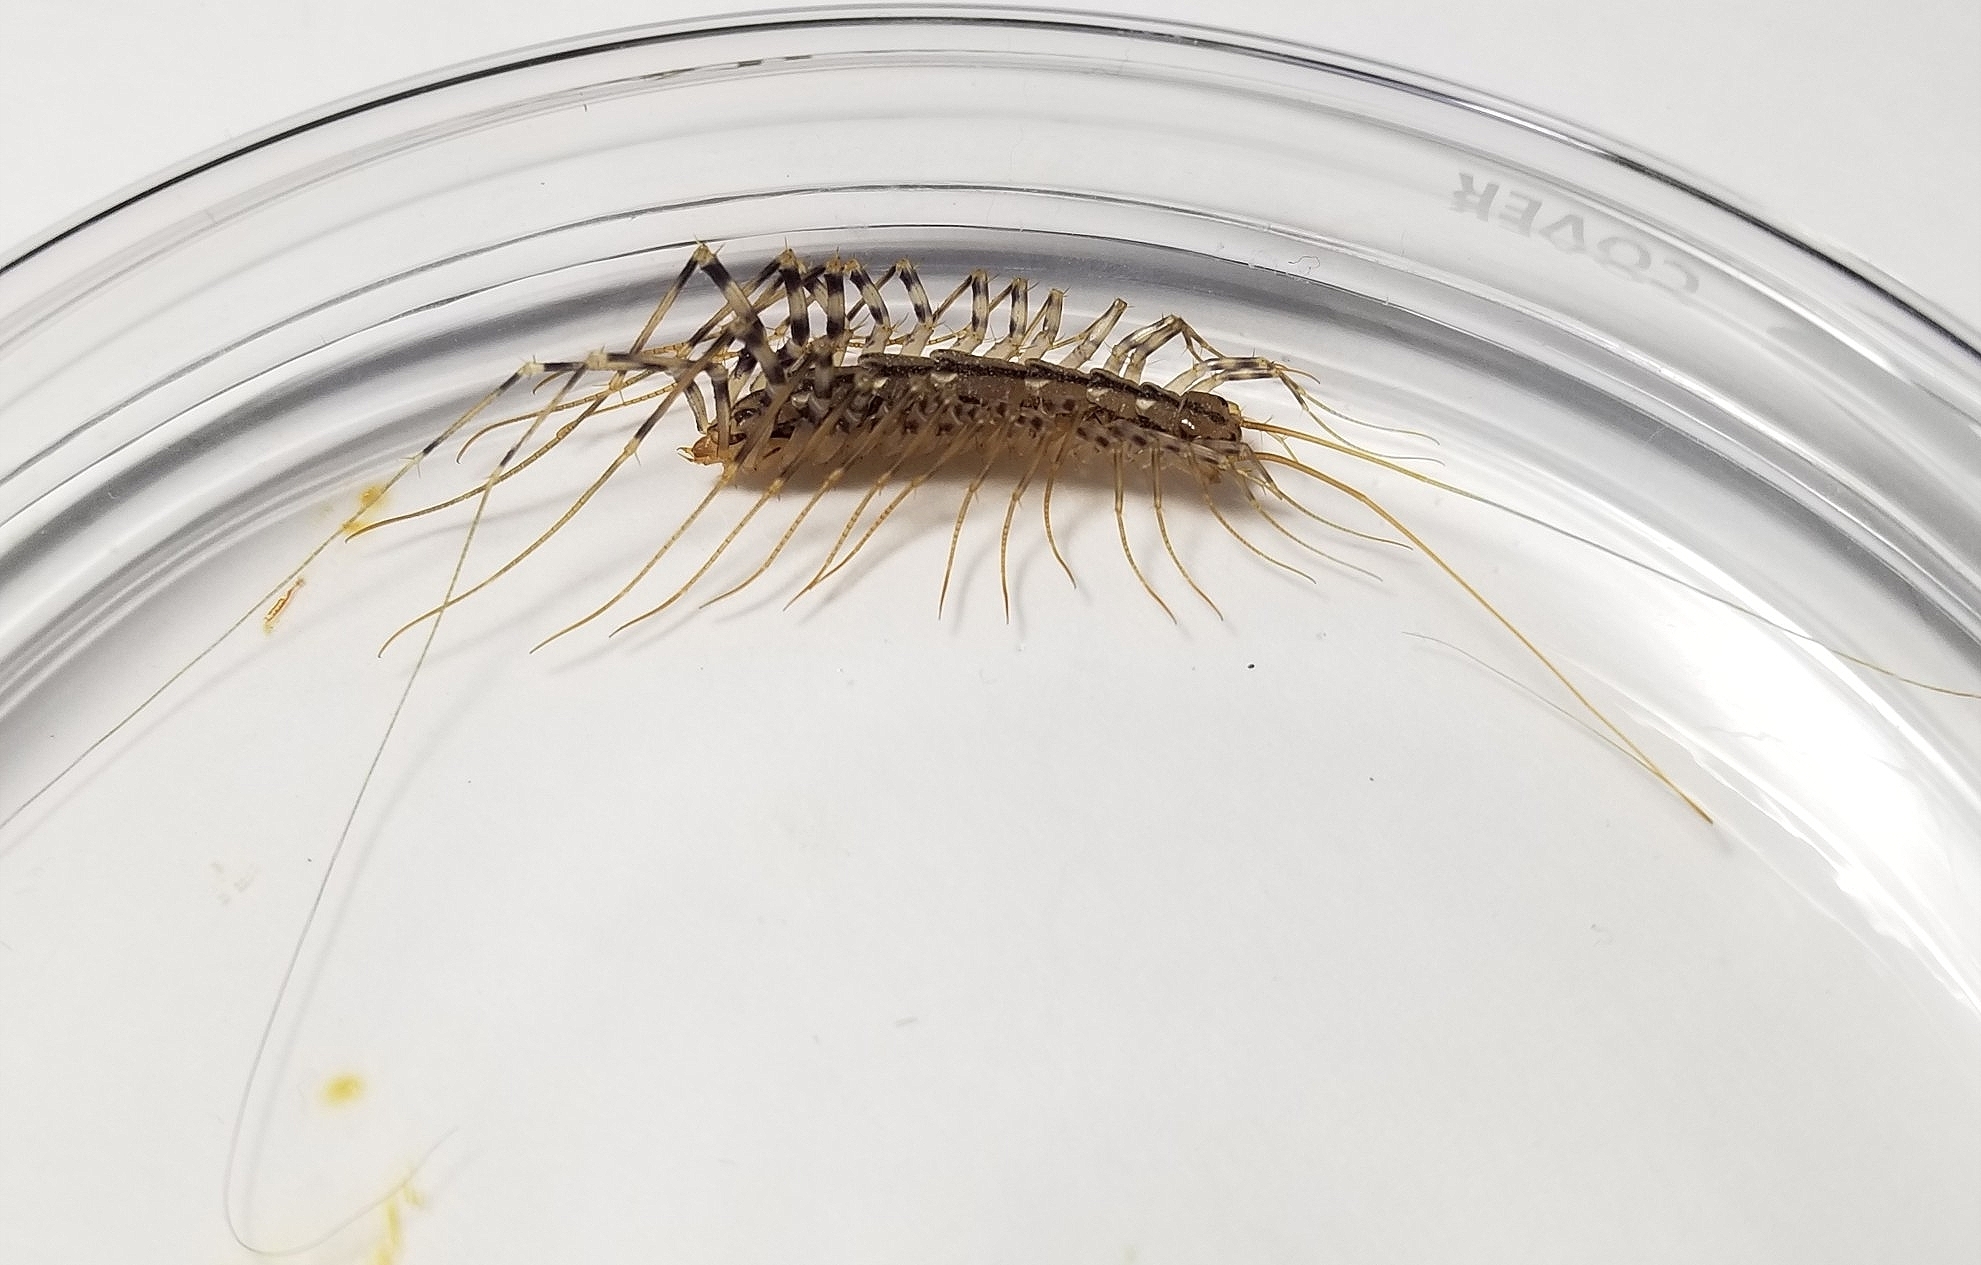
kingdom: Animalia
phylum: Arthropoda
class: Chilopoda
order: Scutigeromorpha
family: Scutigeridae
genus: Scutigera
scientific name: Scutigera coleoptrata
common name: House centipede
